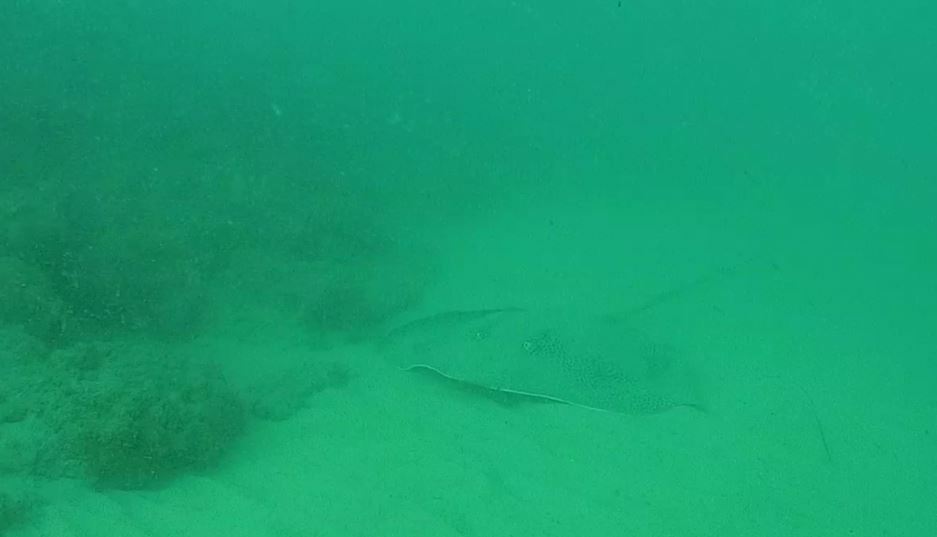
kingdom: Animalia
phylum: Chordata
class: Elasmobranchii
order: Myliobatiformes
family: Dasyatidae
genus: Himantura
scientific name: Himantura uarnak
